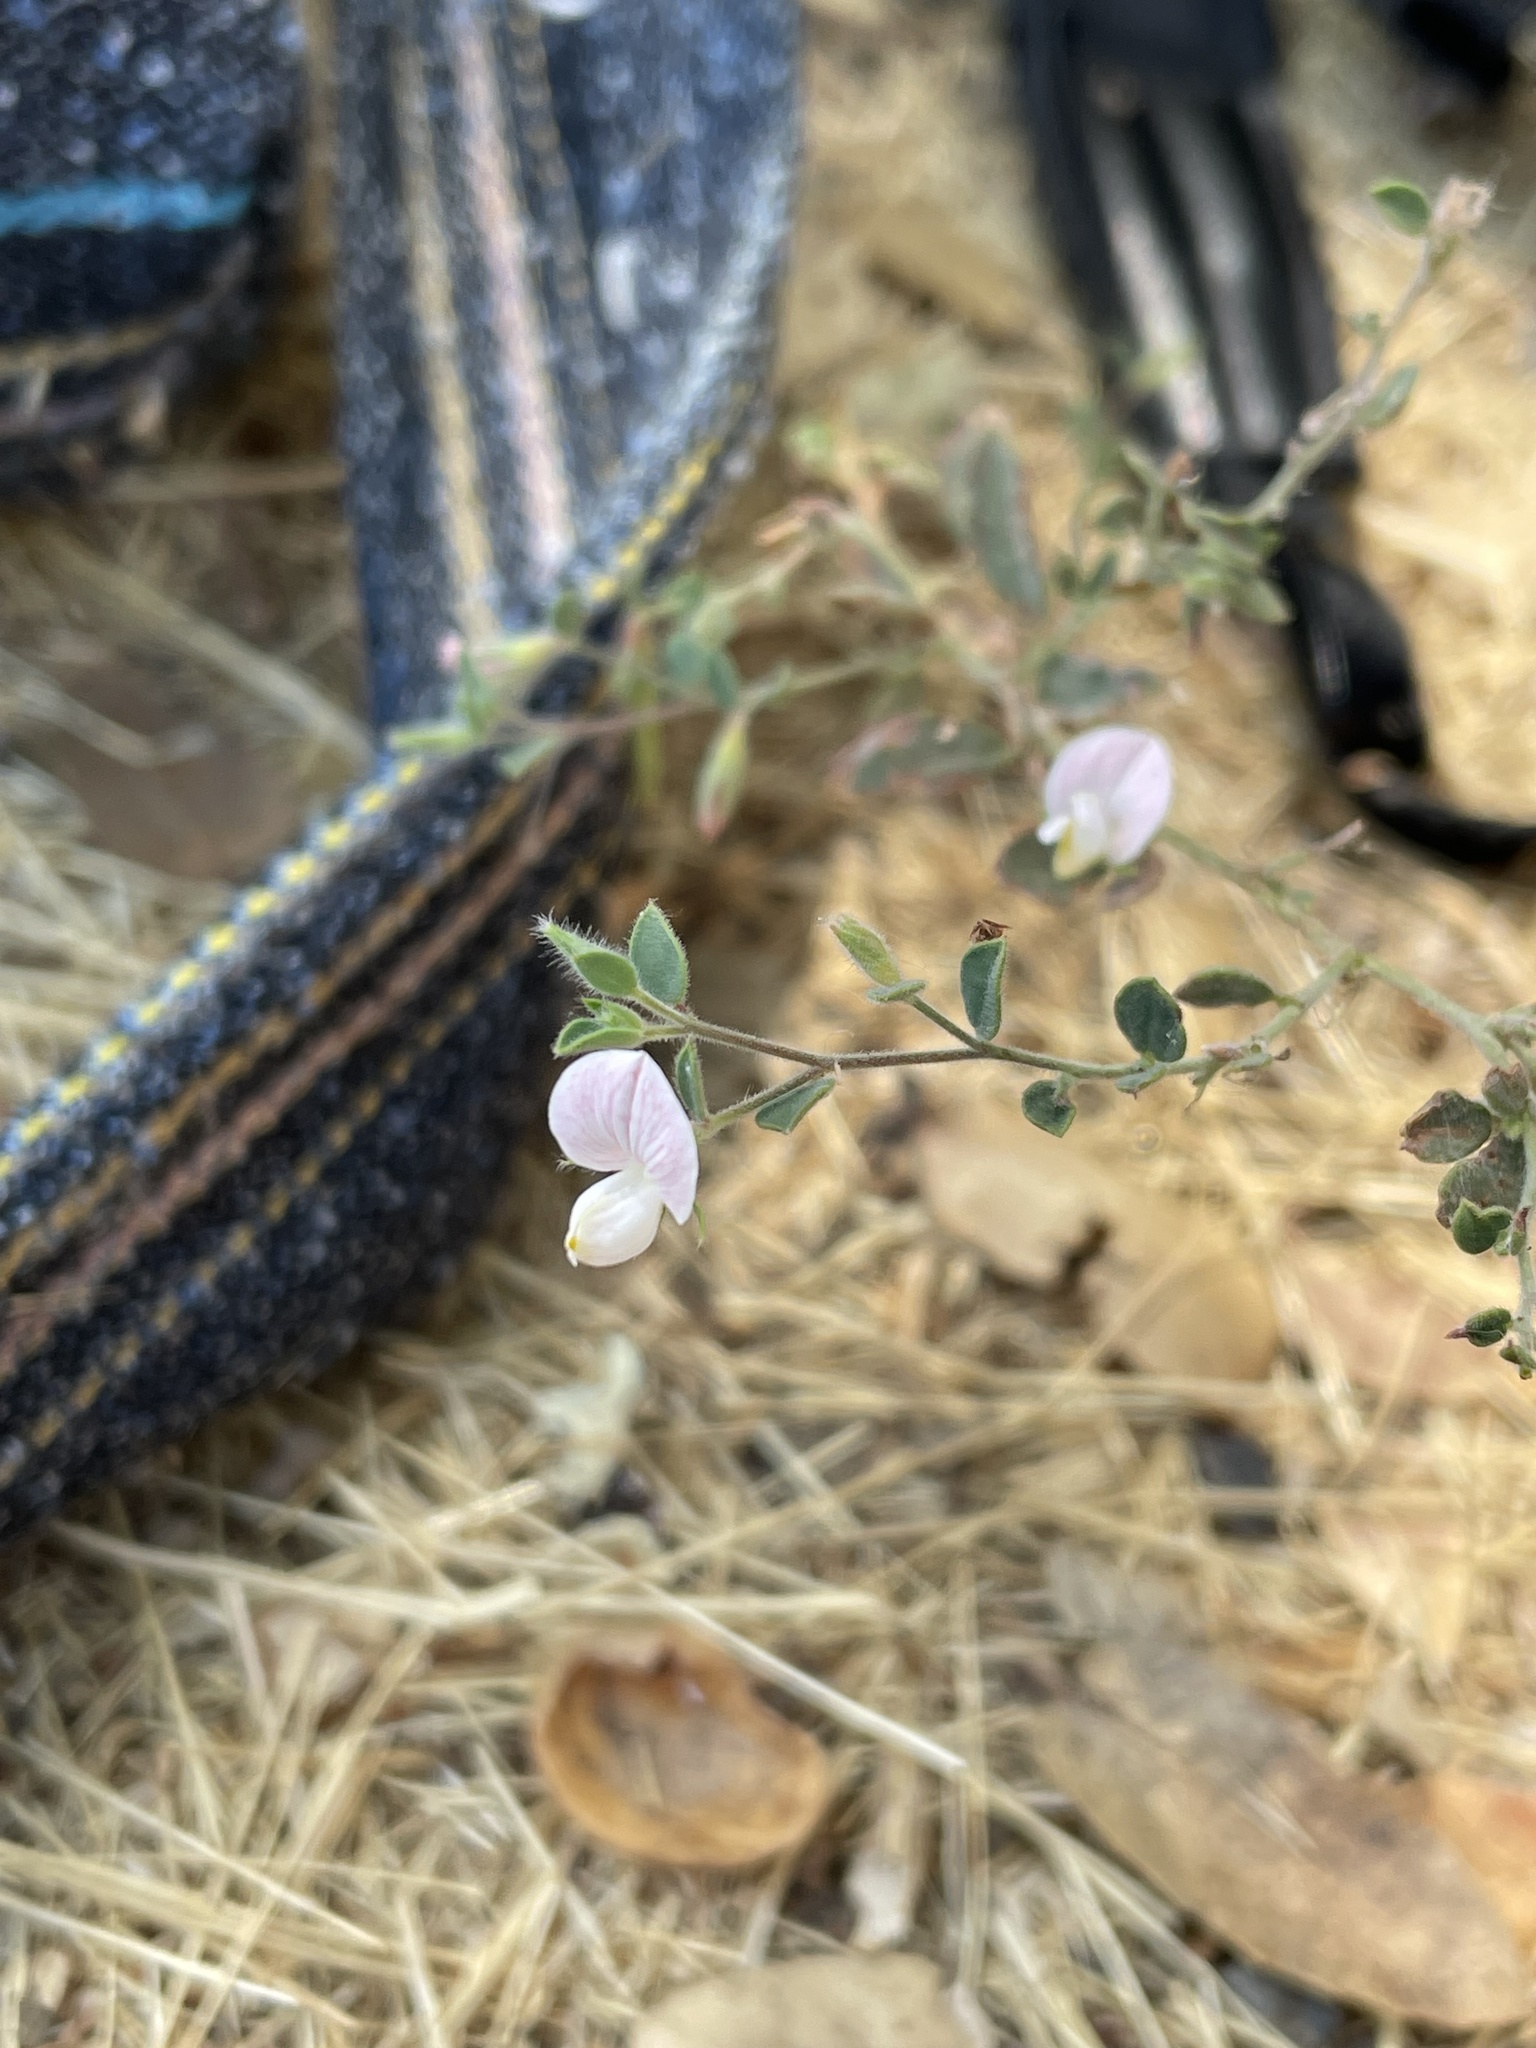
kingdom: Plantae
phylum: Tracheophyta
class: Magnoliopsida
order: Fabales
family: Fabaceae
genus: Acmispon
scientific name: Acmispon americanus
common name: American bird's-foot trefoil
